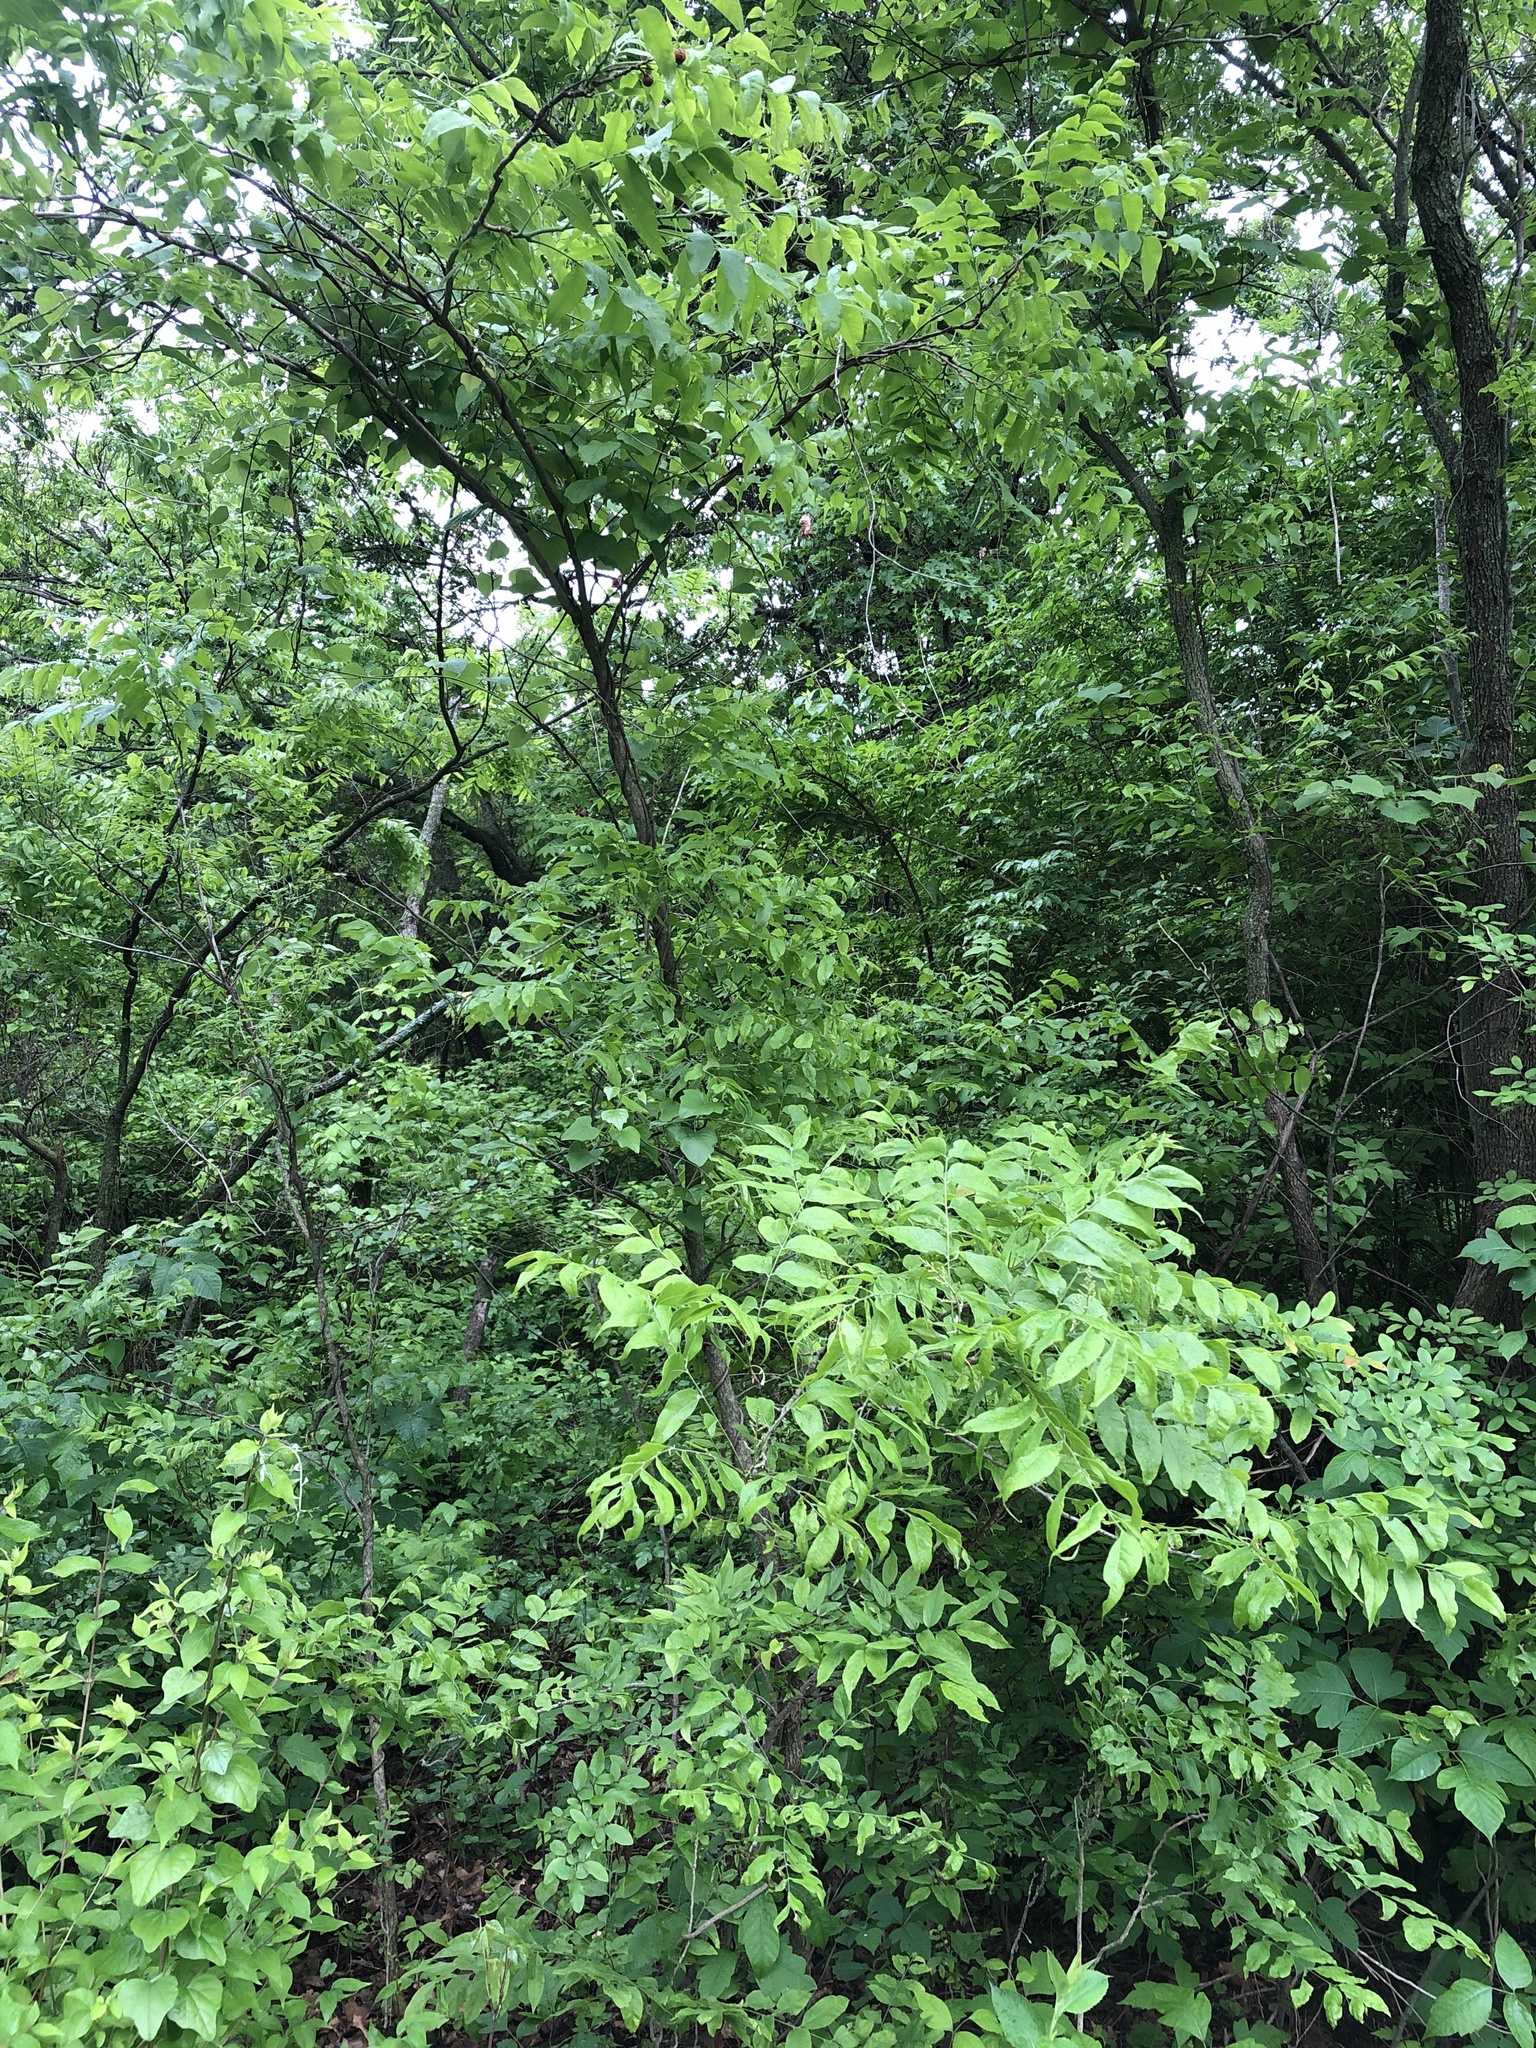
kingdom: Plantae
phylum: Tracheophyta
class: Magnoliopsida
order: Sapindales
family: Sapindaceae
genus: Sapindus
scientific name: Sapindus drummondii
